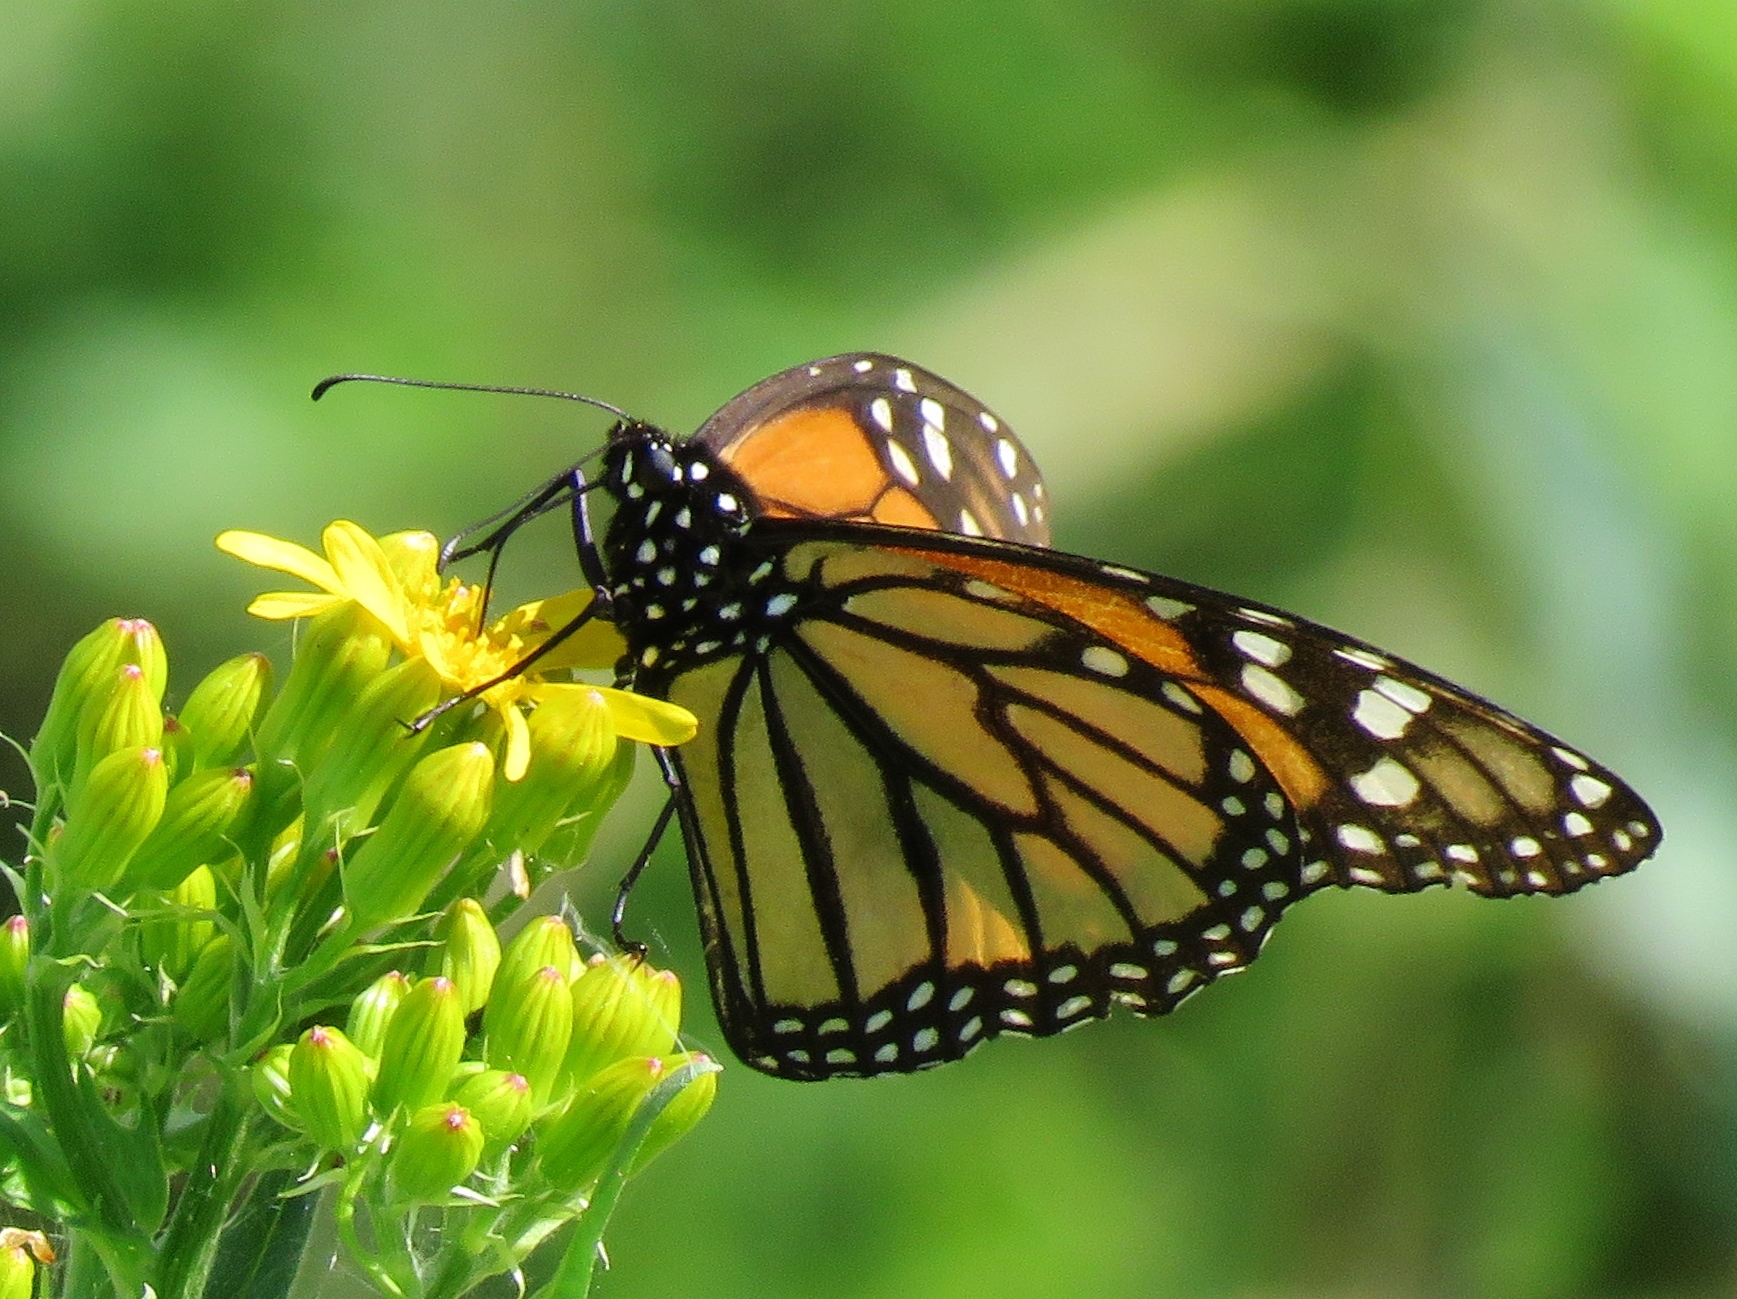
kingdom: Animalia
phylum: Arthropoda
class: Insecta
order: Lepidoptera
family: Nymphalidae
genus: Danaus
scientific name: Danaus plexippus
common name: Monarch
